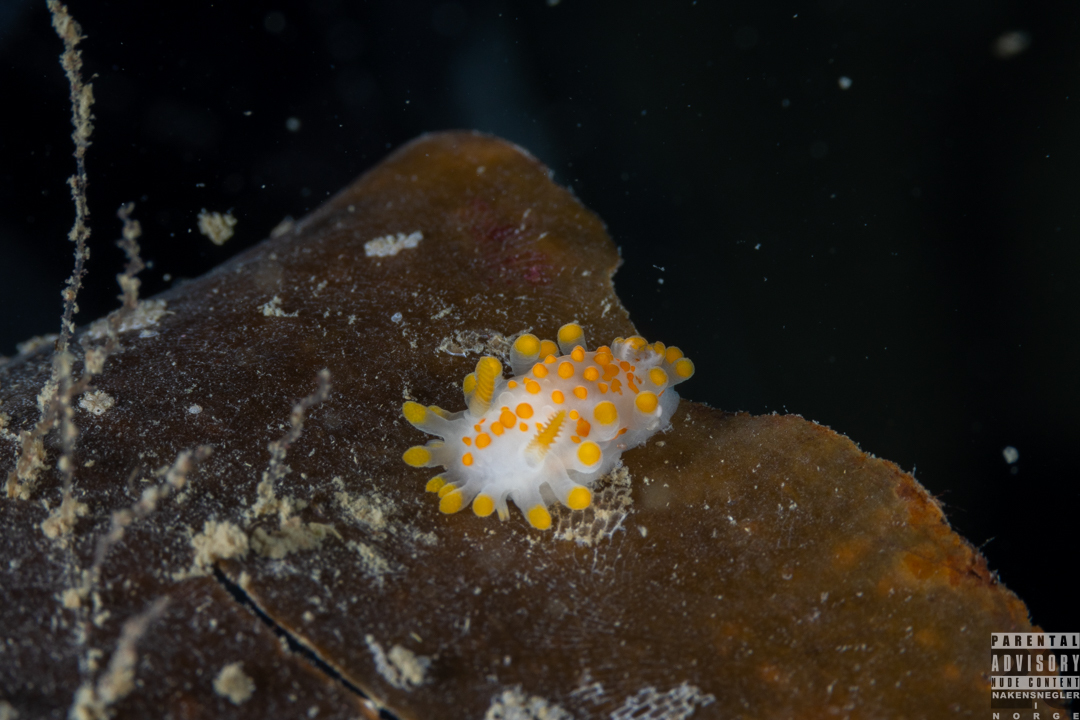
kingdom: Animalia
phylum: Mollusca
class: Gastropoda
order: Nudibranchia
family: Polyceridae
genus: Limacia
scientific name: Limacia clavigera
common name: Orange-clubbed sea slug
